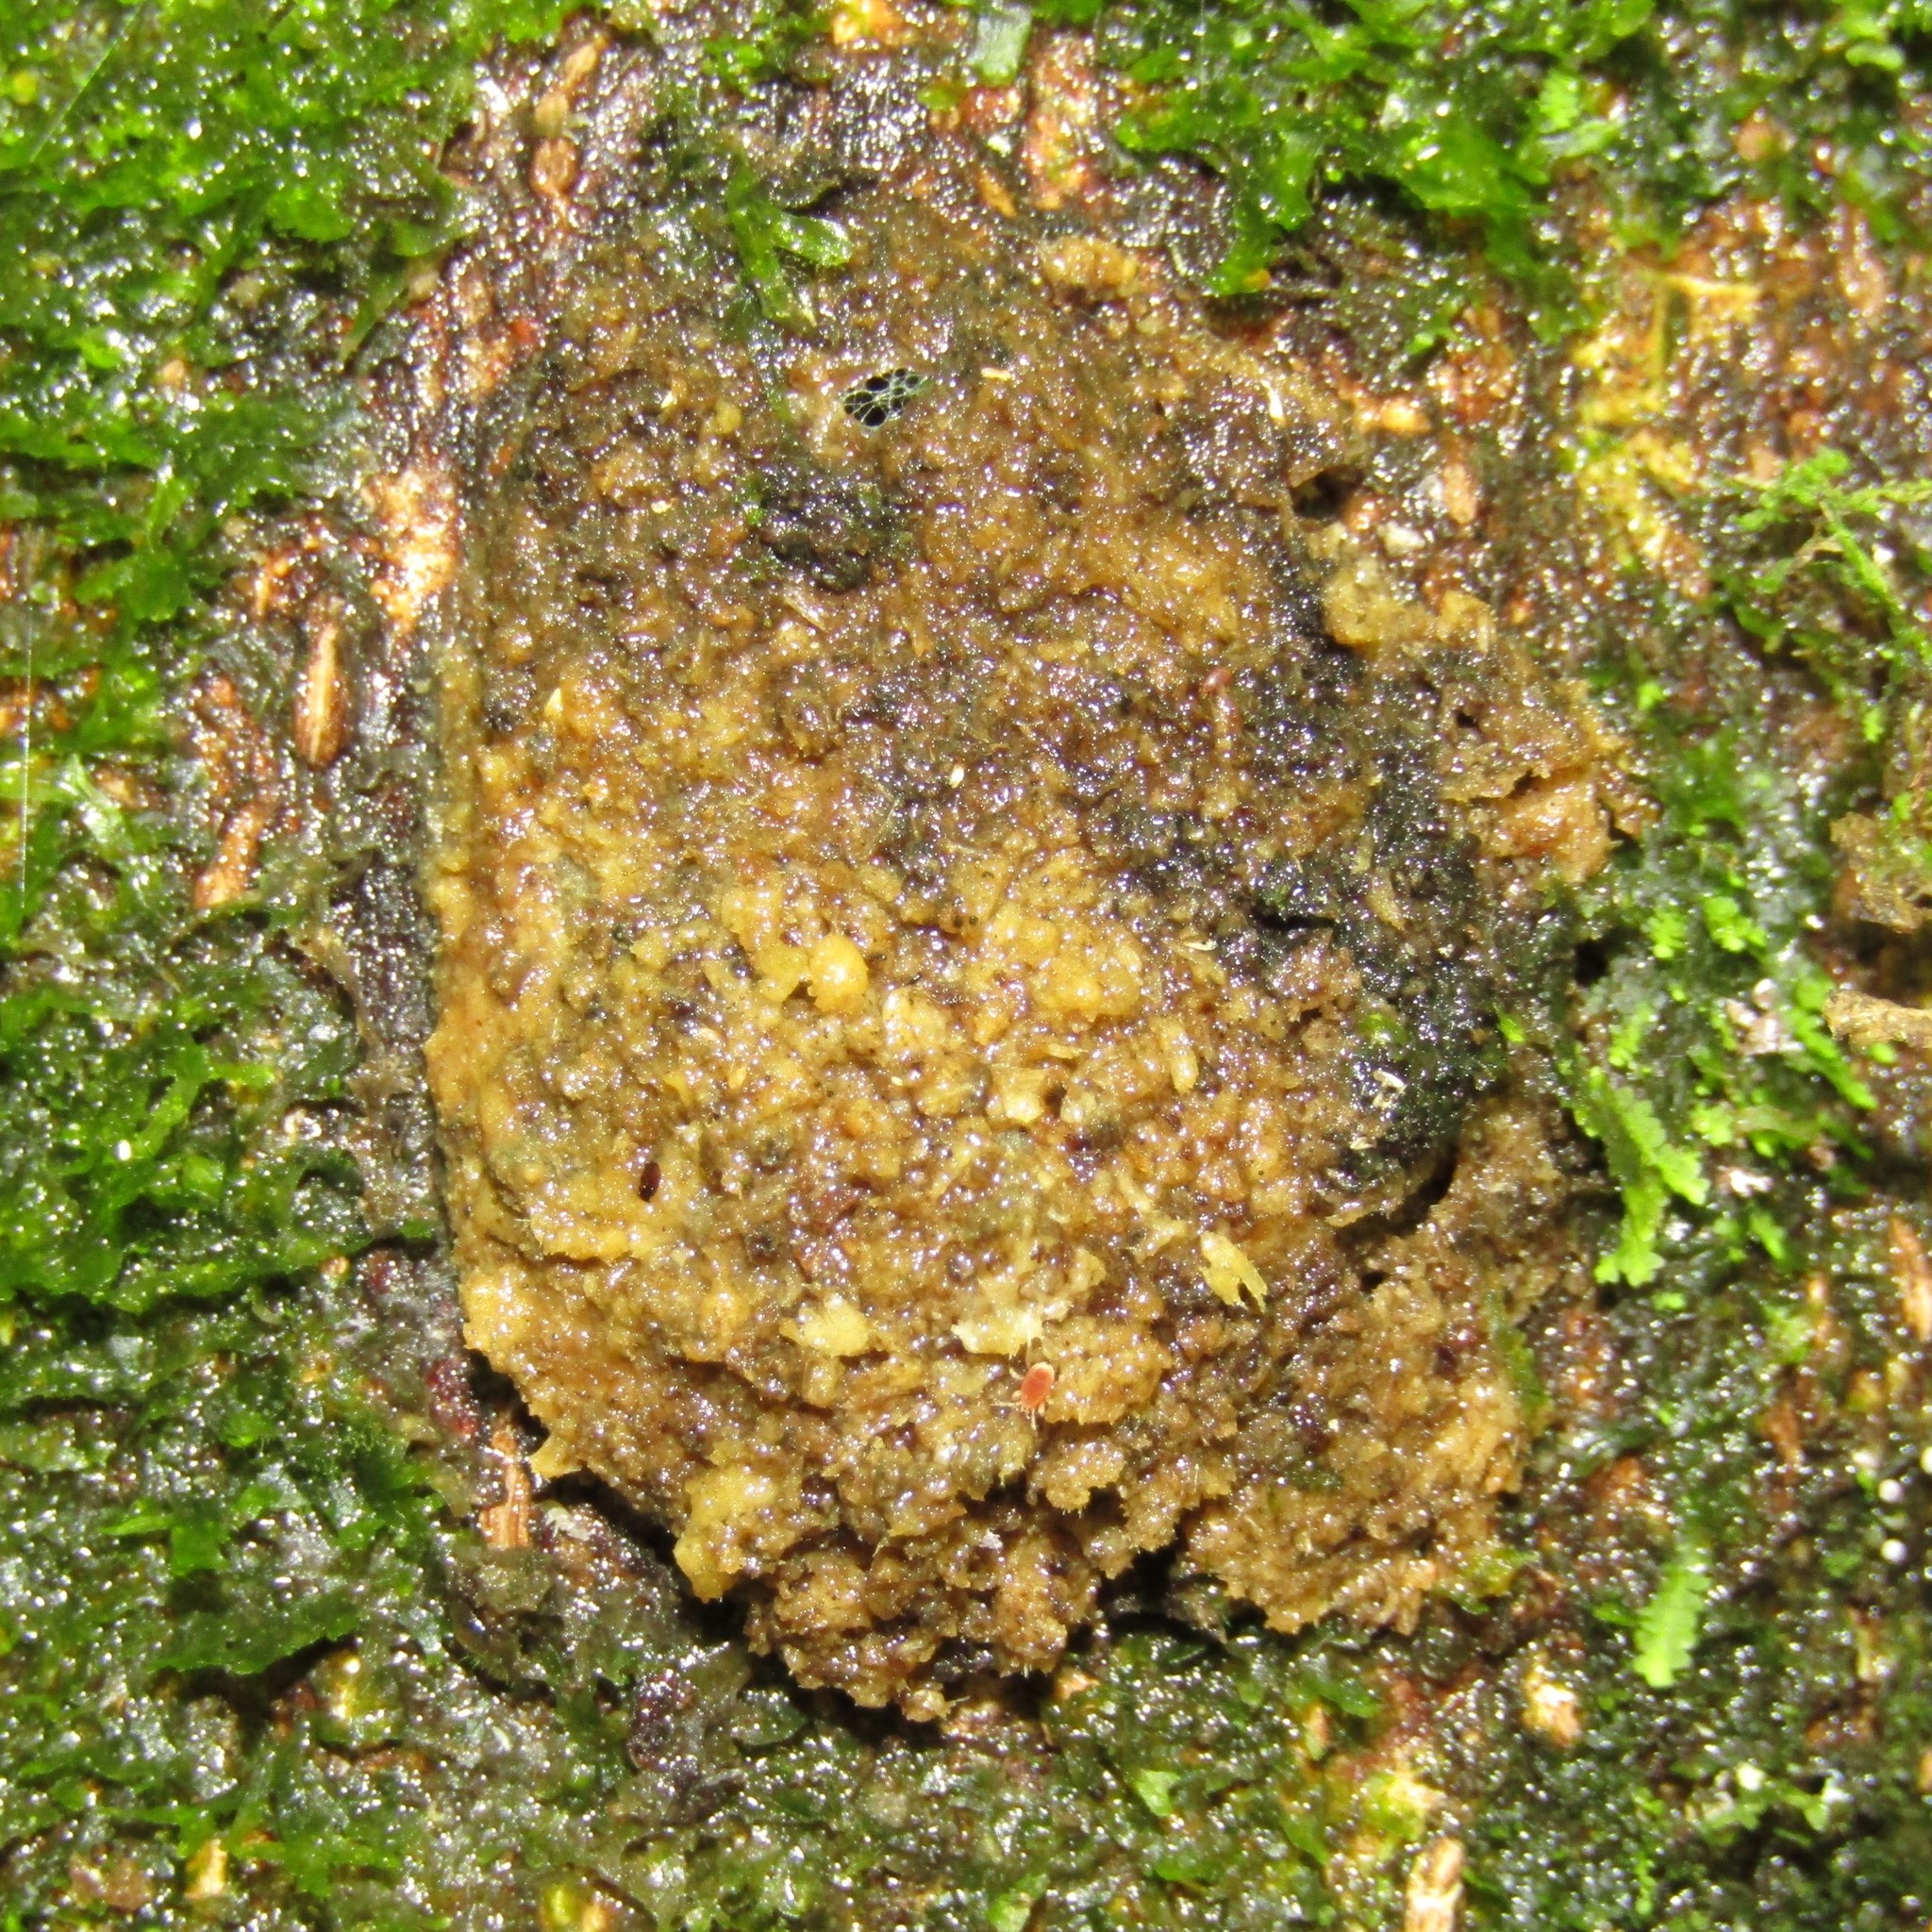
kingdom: Animalia
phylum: Arthropoda
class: Insecta
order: Lepidoptera
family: Hepialidae
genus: Aenetus
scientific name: Aenetus virescens
